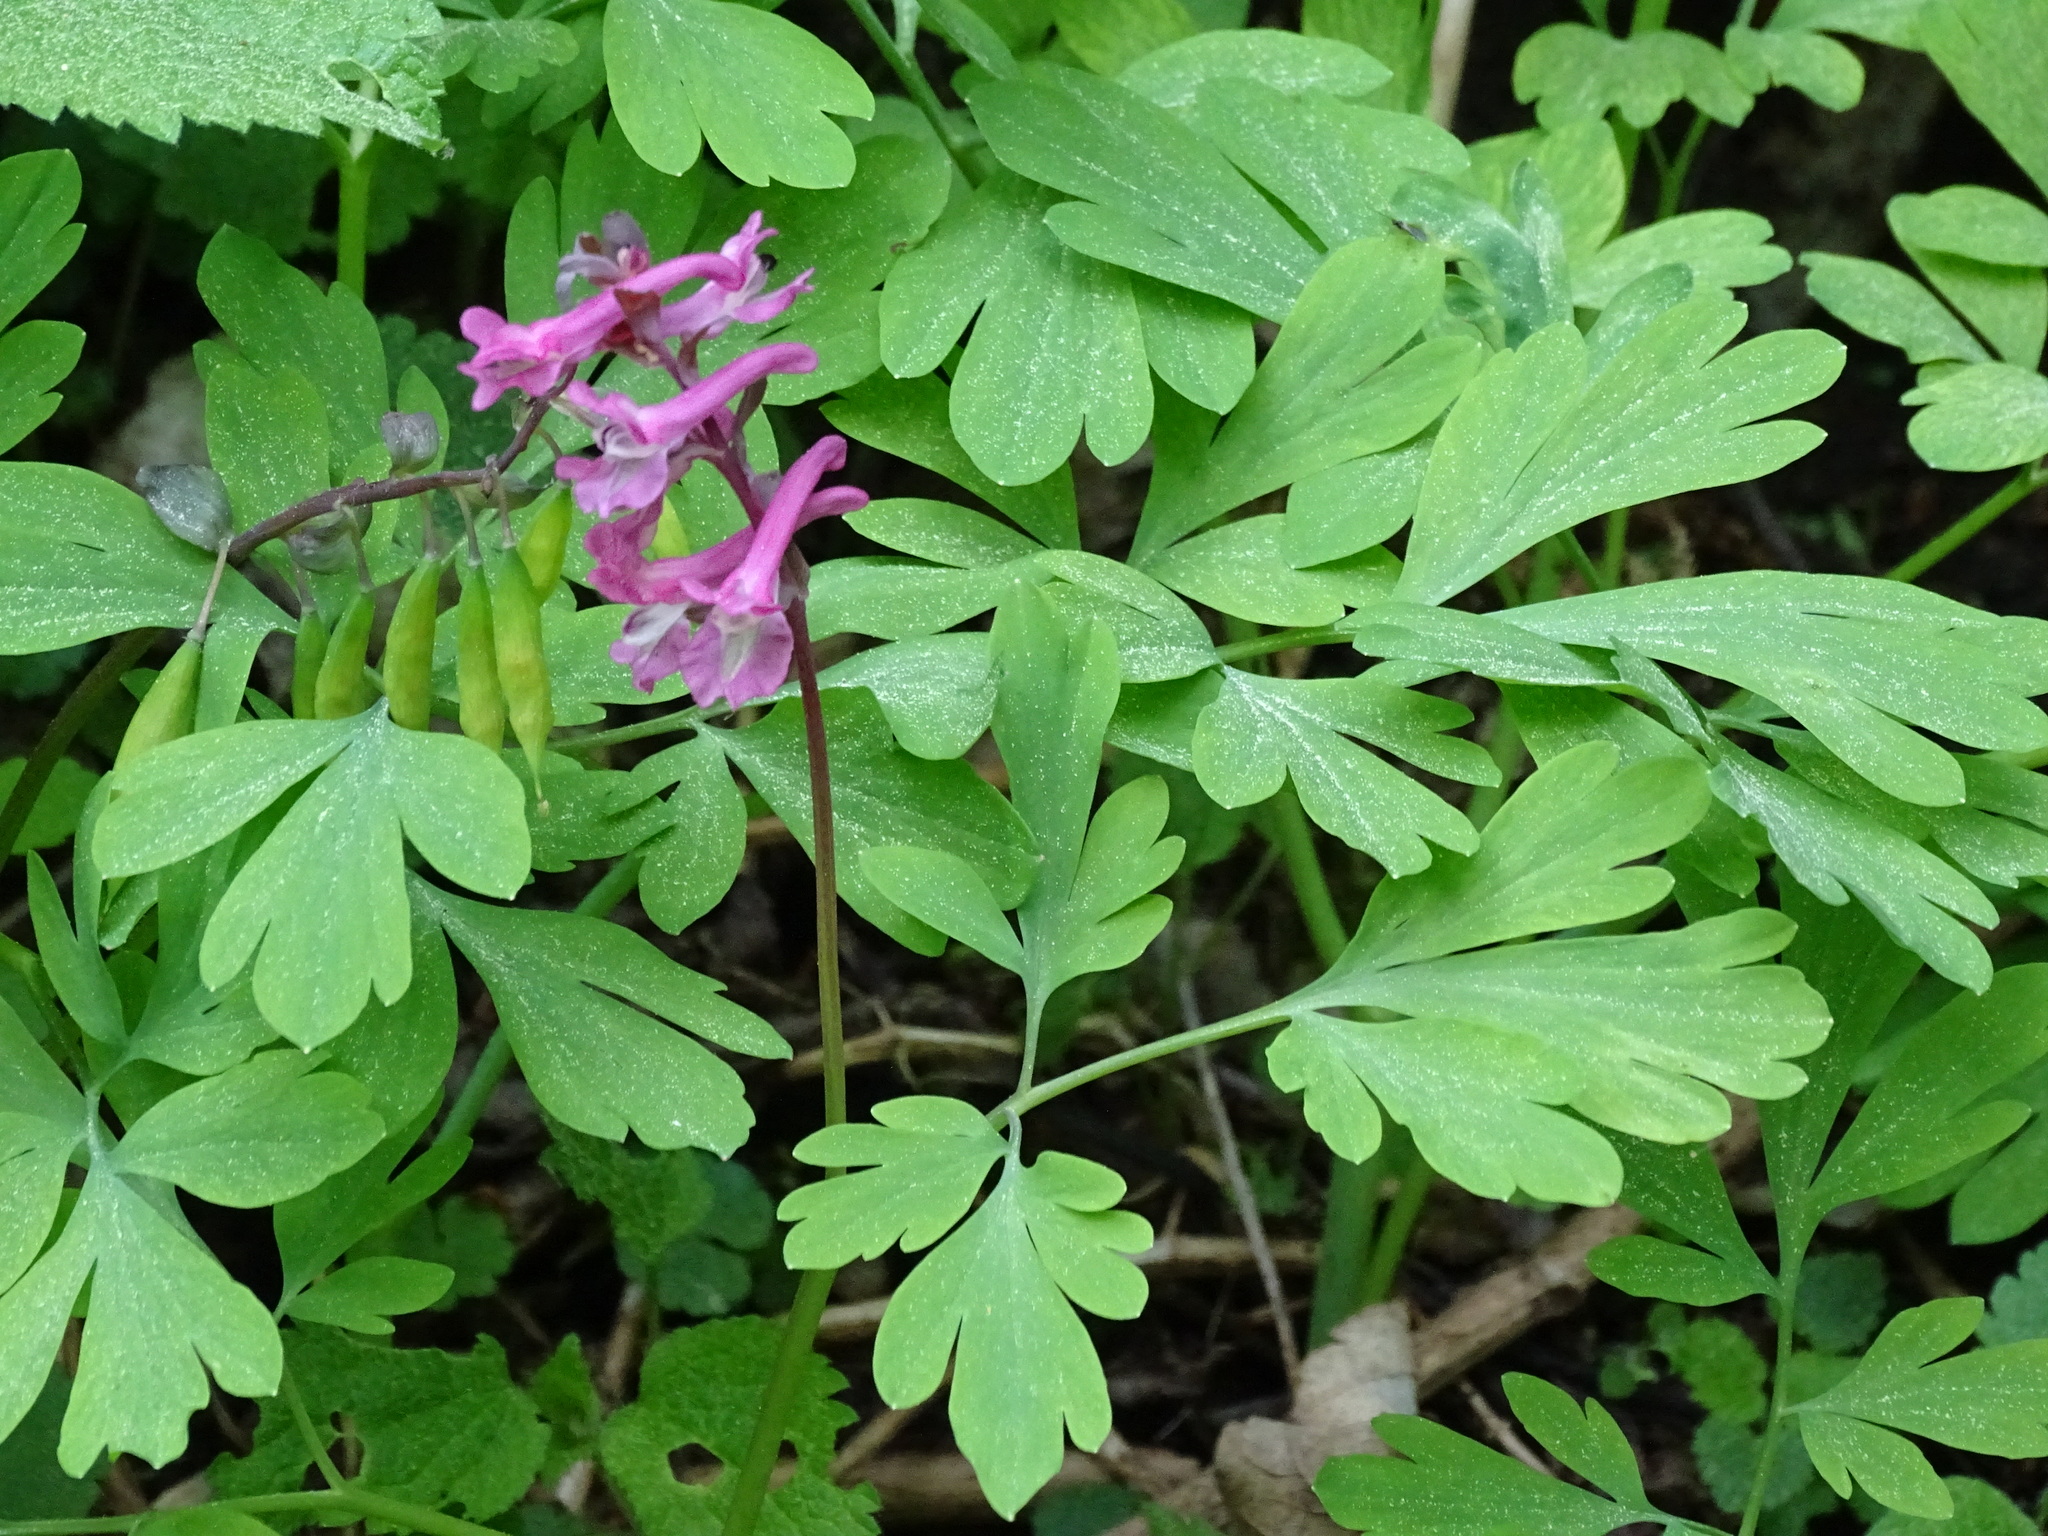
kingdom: Plantae
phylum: Tracheophyta
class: Magnoliopsida
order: Ranunculales
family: Papaveraceae
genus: Corydalis
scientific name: Corydalis cava
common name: Hollowroot
